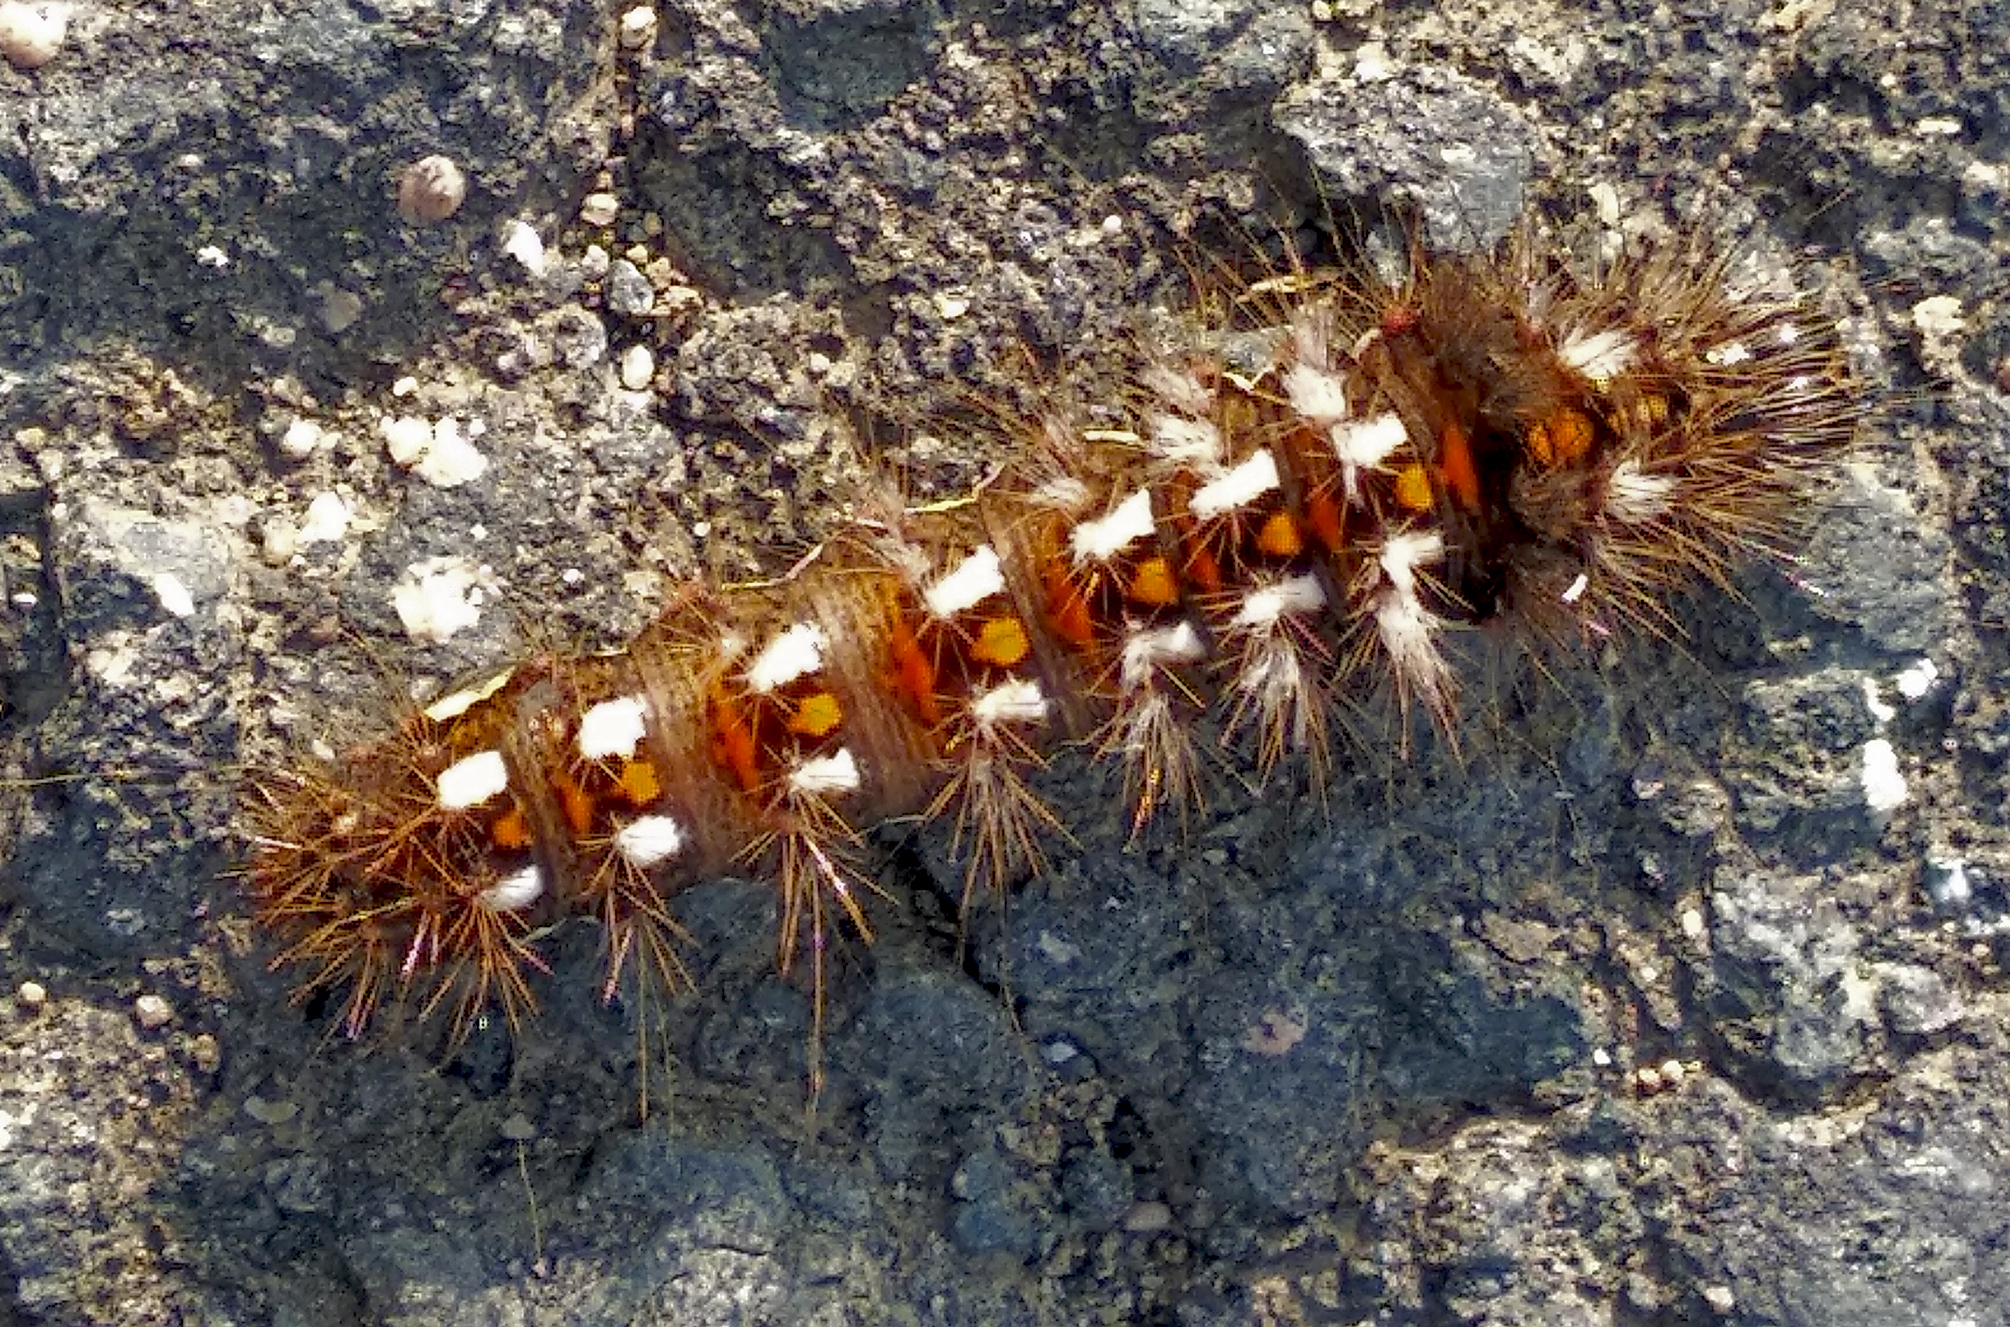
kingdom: Animalia
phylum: Arthropoda
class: Insecta
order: Lepidoptera
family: Noctuidae
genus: Acronicta
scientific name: Acronicta rumicis
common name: Knot grass
